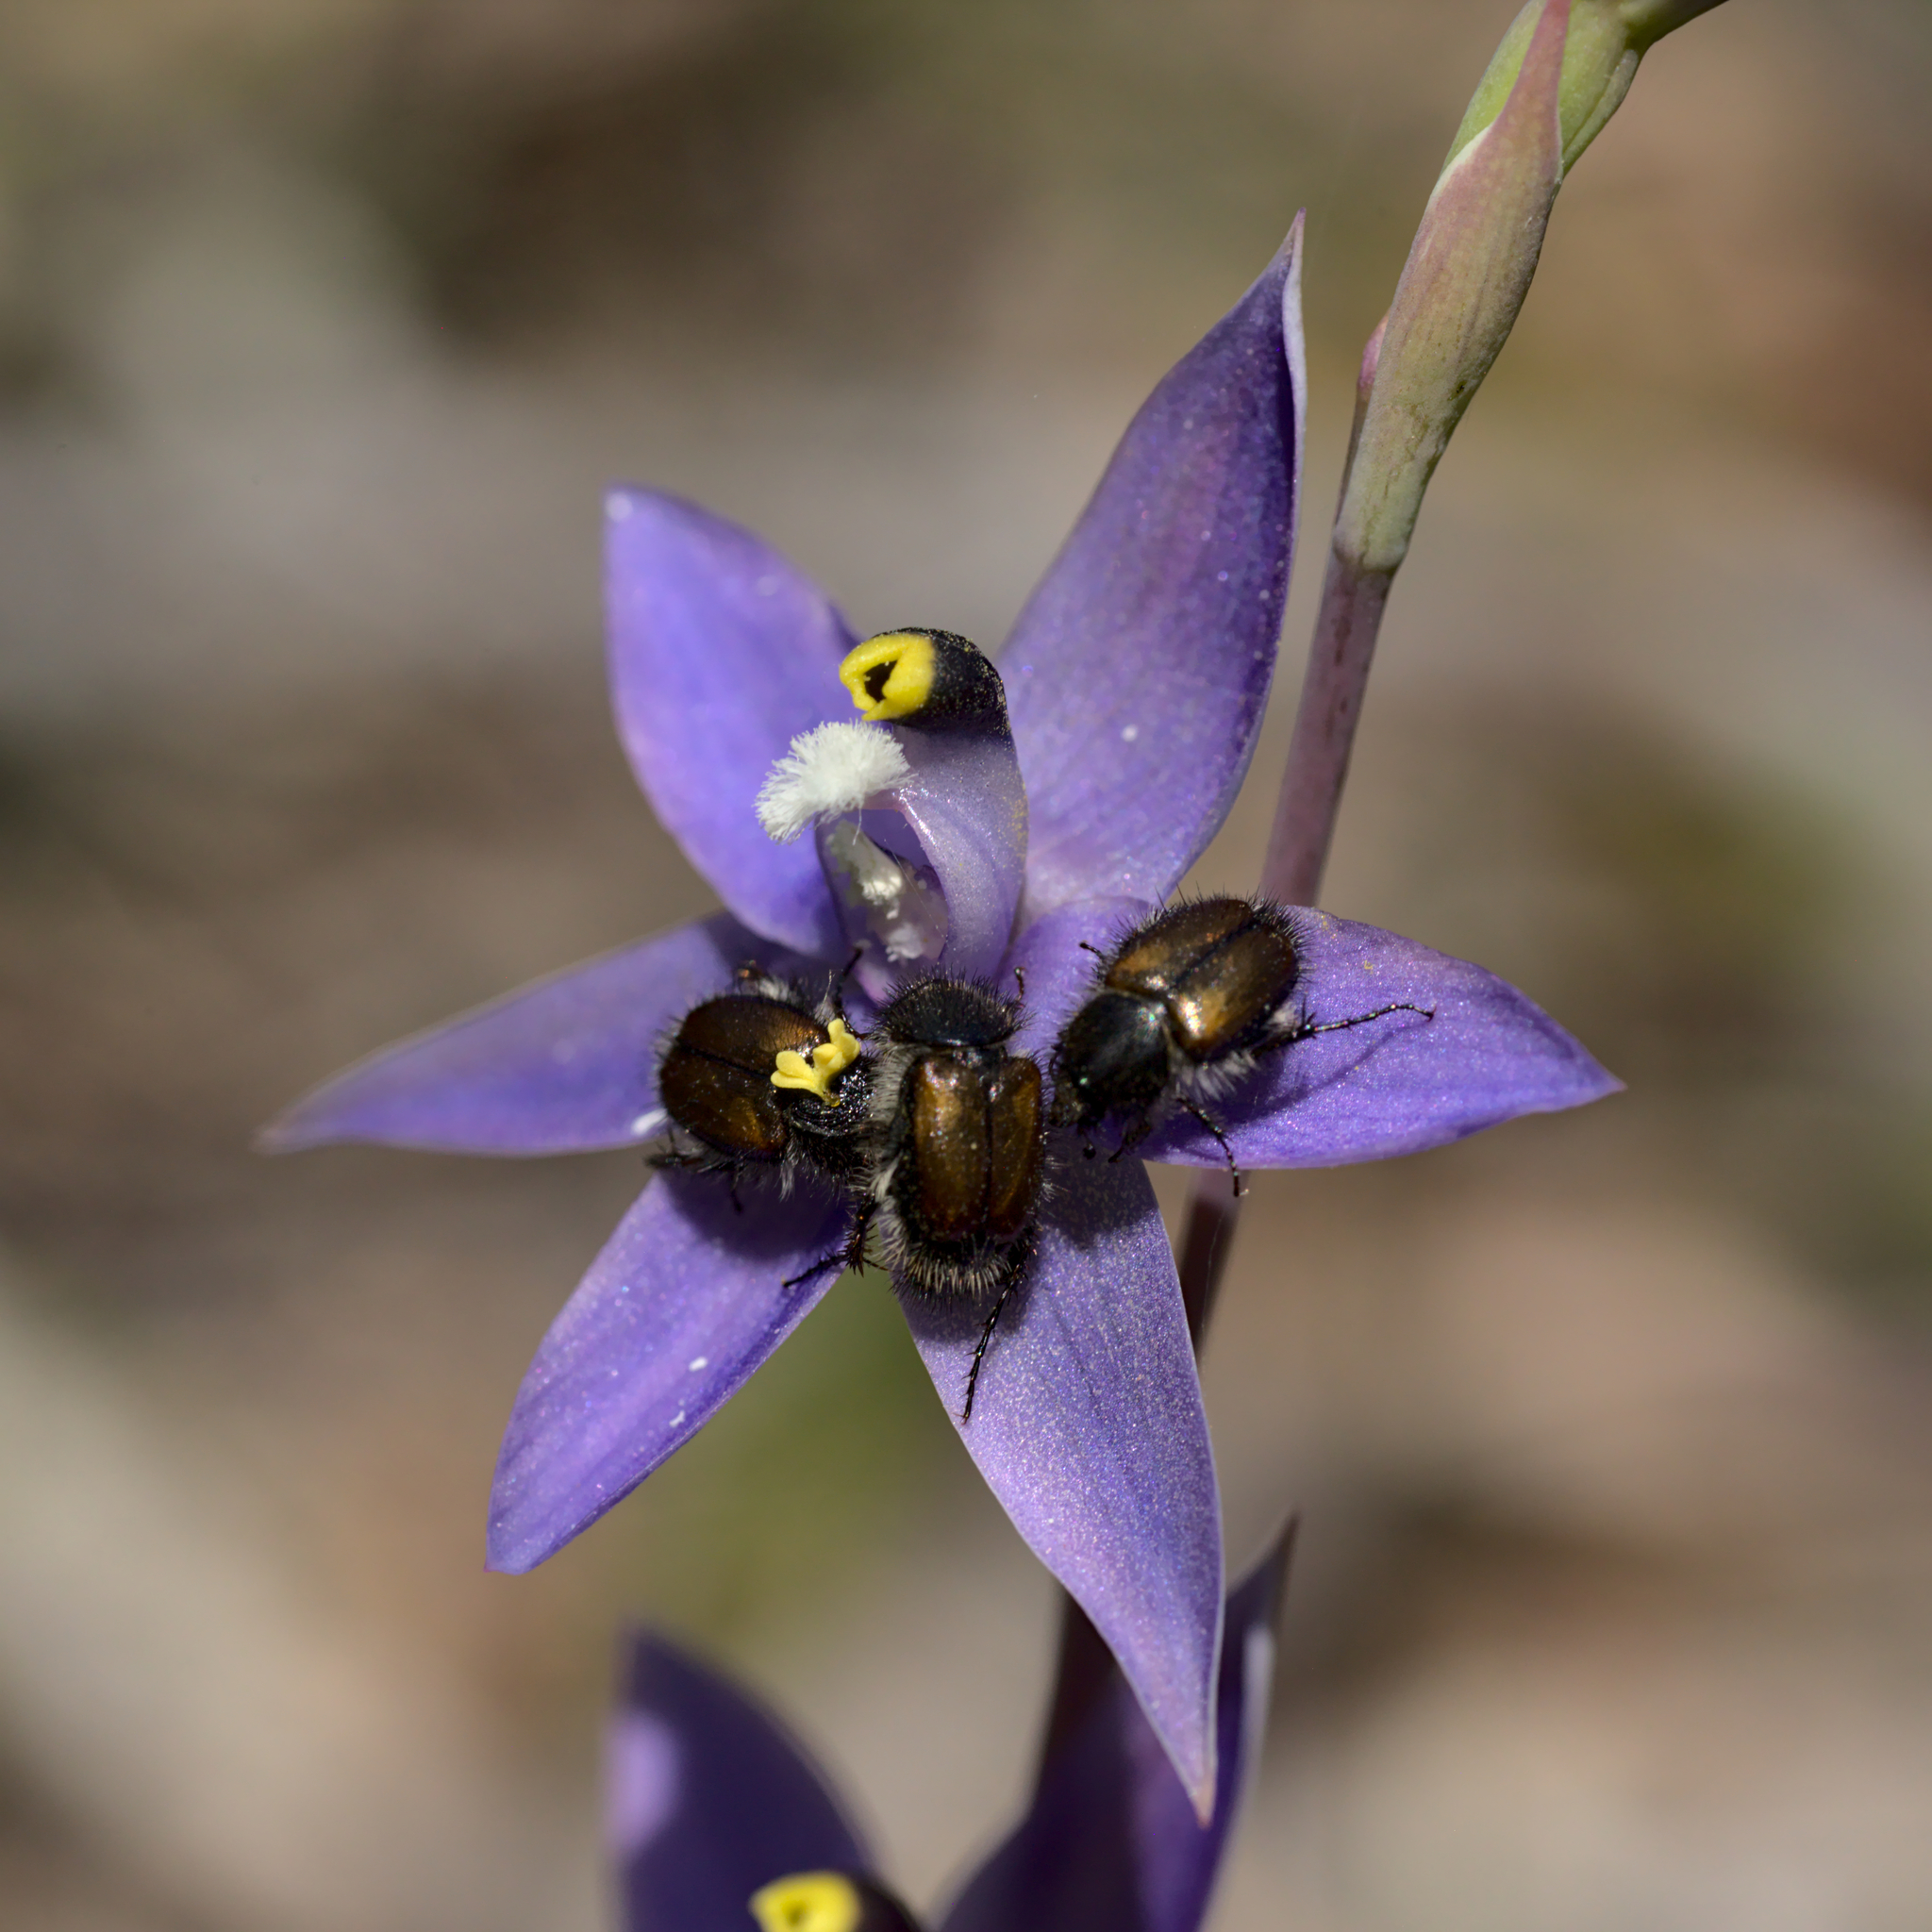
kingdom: Plantae
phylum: Tracheophyta
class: Liliopsida
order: Asparagales
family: Orchidaceae
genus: Thelymitra
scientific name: Thelymitra graminea
